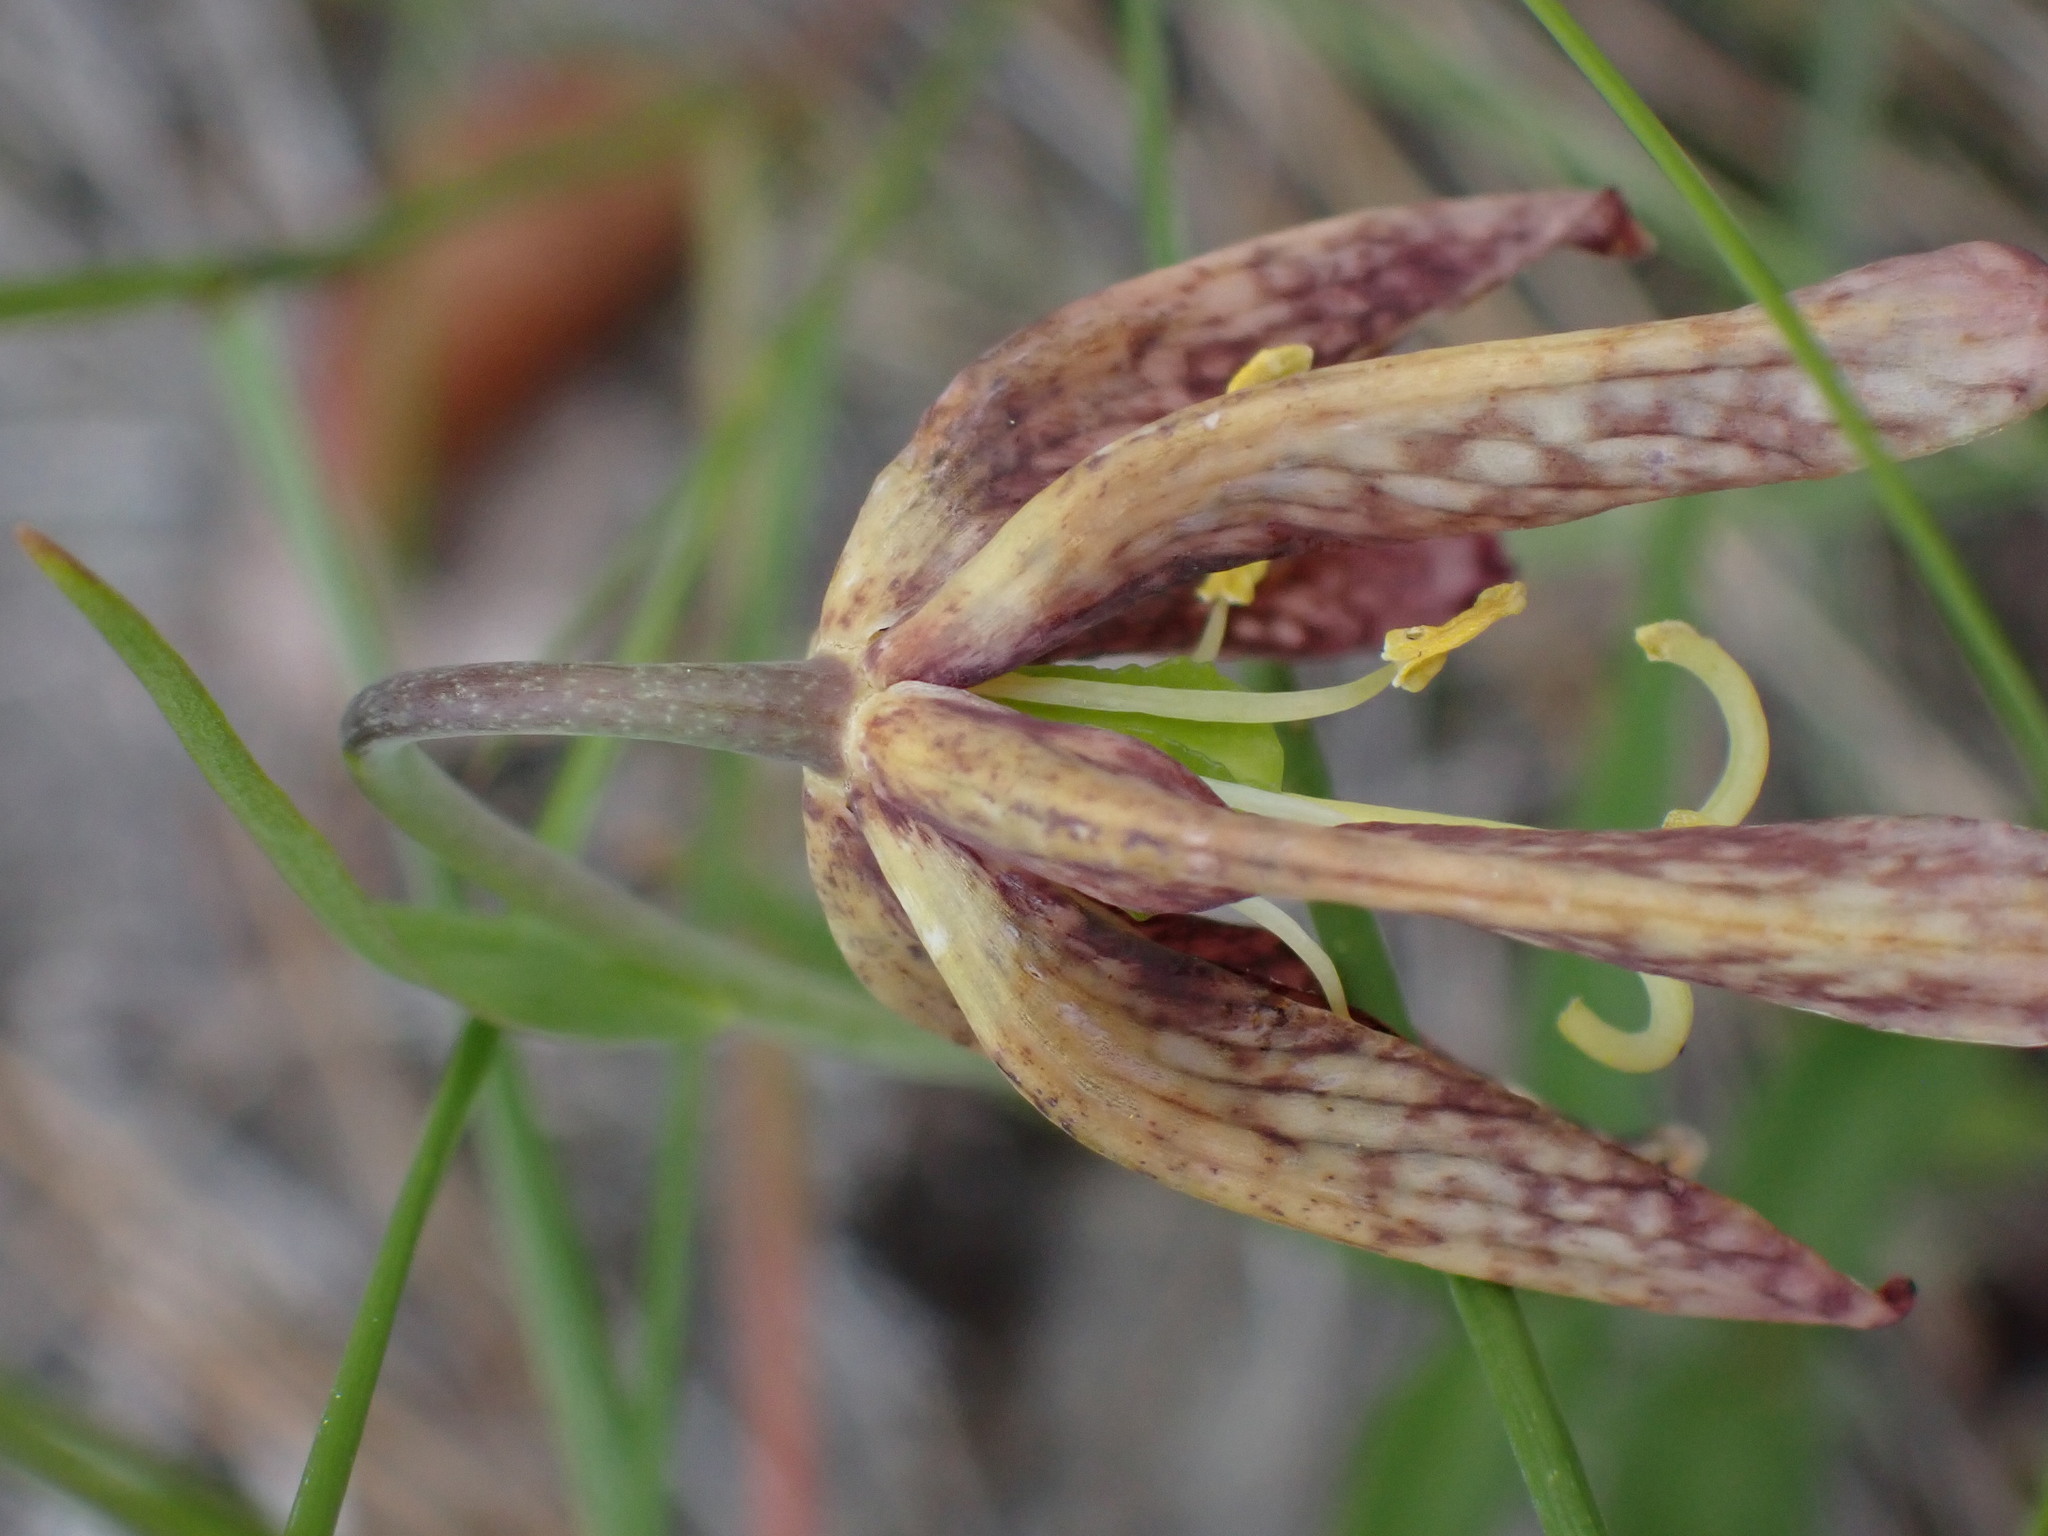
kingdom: Plantae
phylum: Tracheophyta
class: Liliopsida
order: Liliales
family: Liliaceae
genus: Fritillaria
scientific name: Fritillaria affinis
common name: Ojai fritillary
